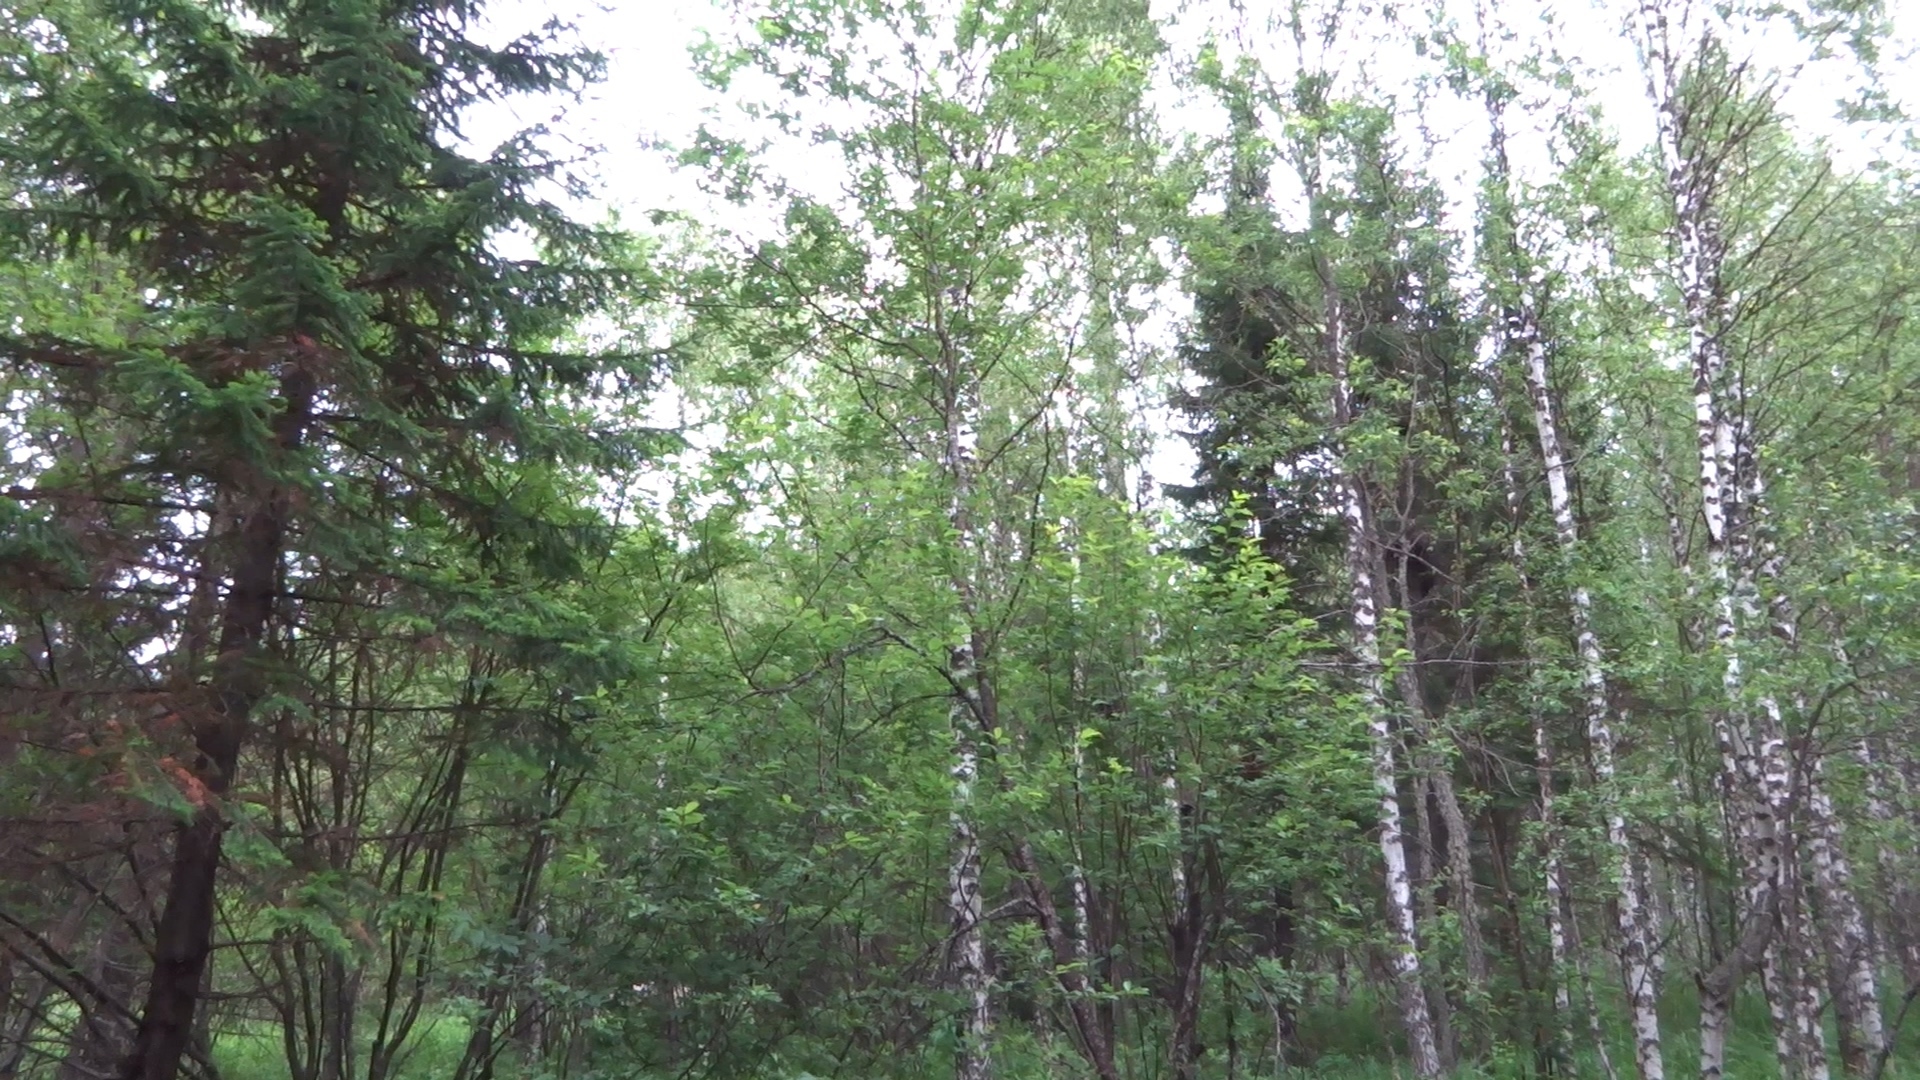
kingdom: Animalia
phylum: Chordata
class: Aves
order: Passeriformes
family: Turdidae
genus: Turdus
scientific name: Turdus merula
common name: Common blackbird
